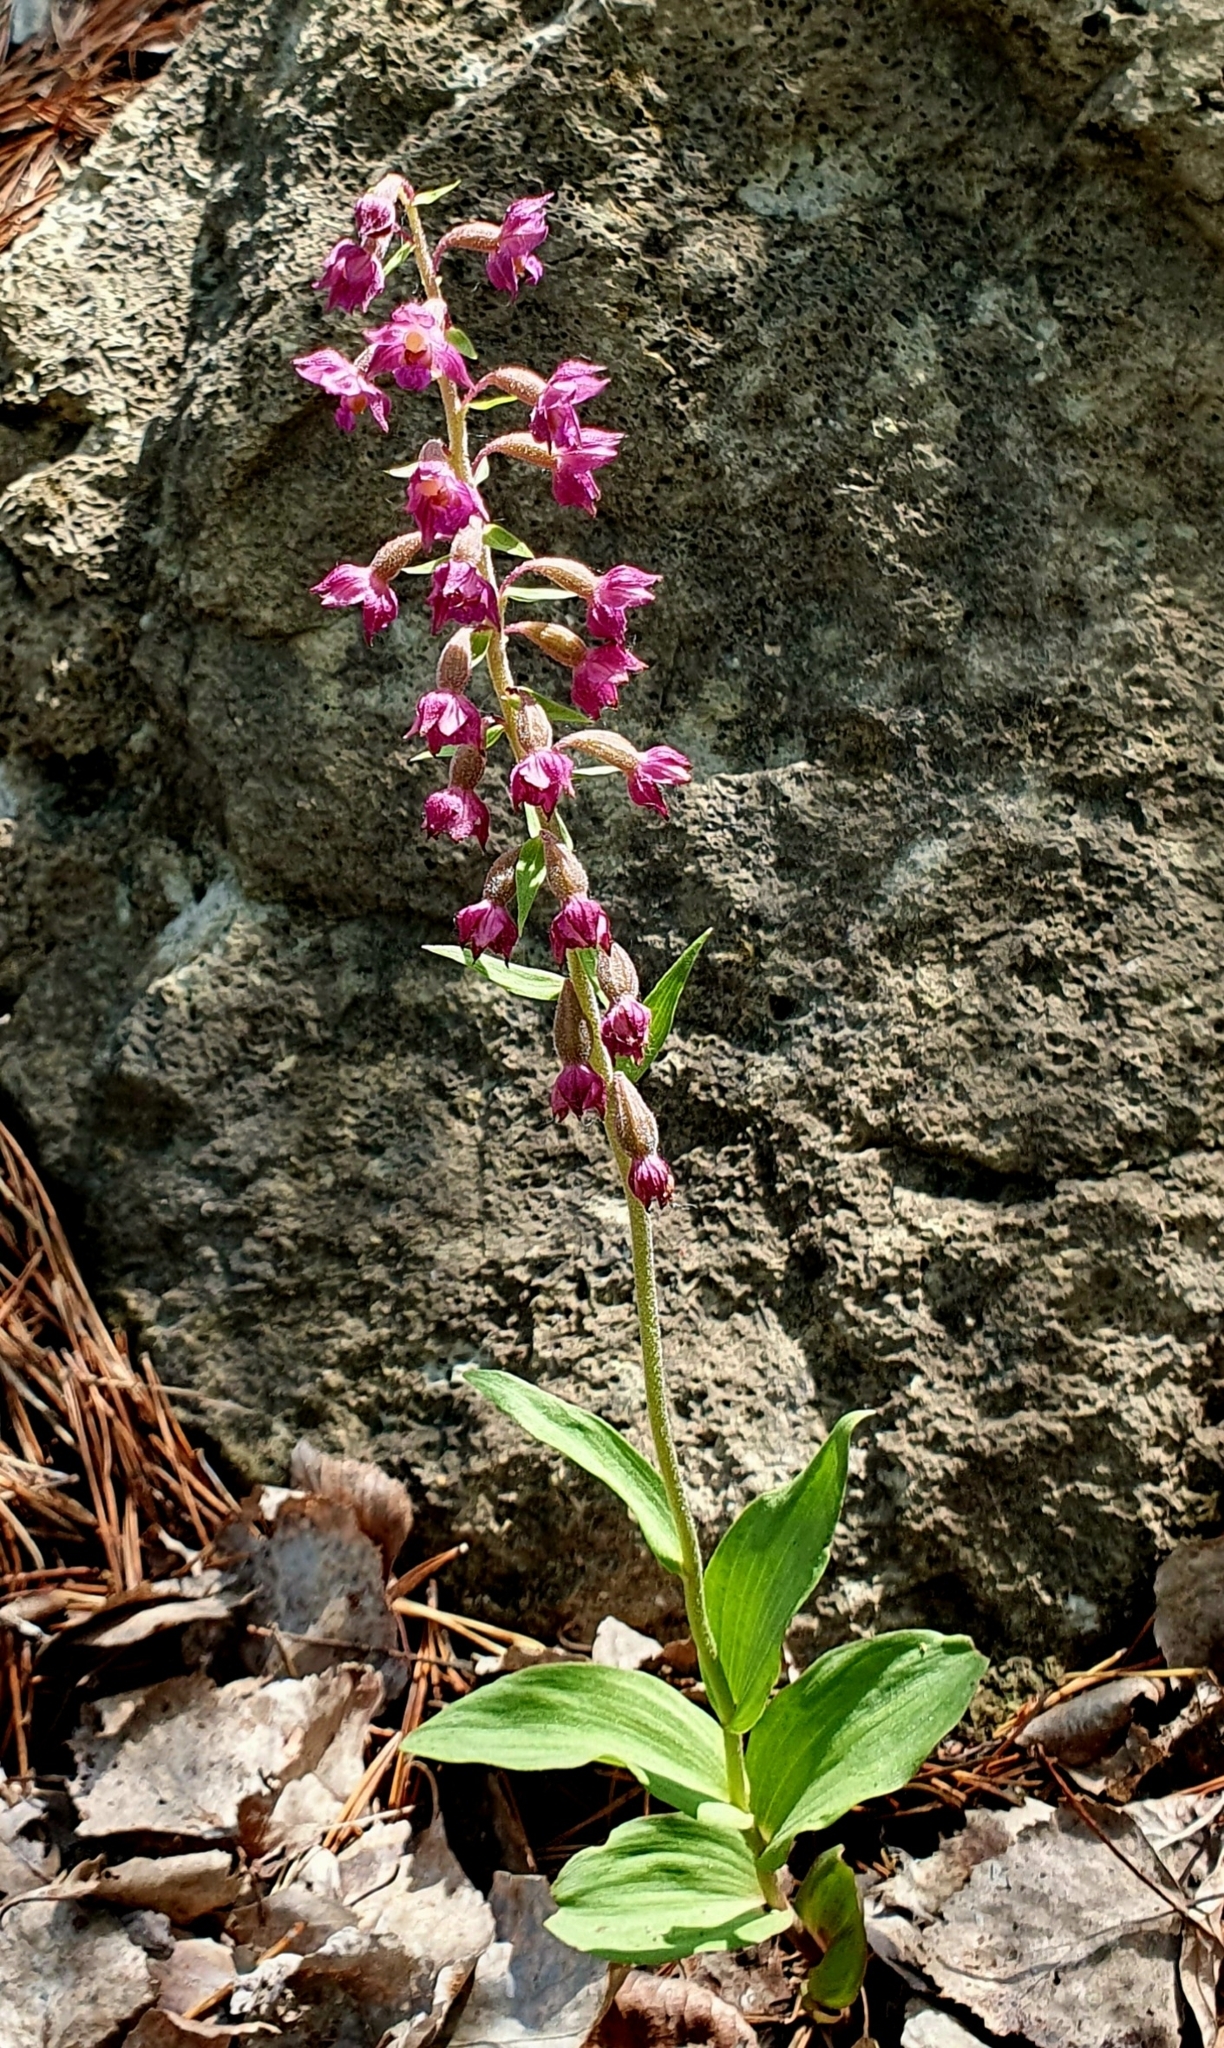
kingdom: Plantae
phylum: Tracheophyta
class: Liliopsida
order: Asparagales
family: Orchidaceae
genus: Epipactis
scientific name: Epipactis atrorubens
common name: Dark-red helleborine
